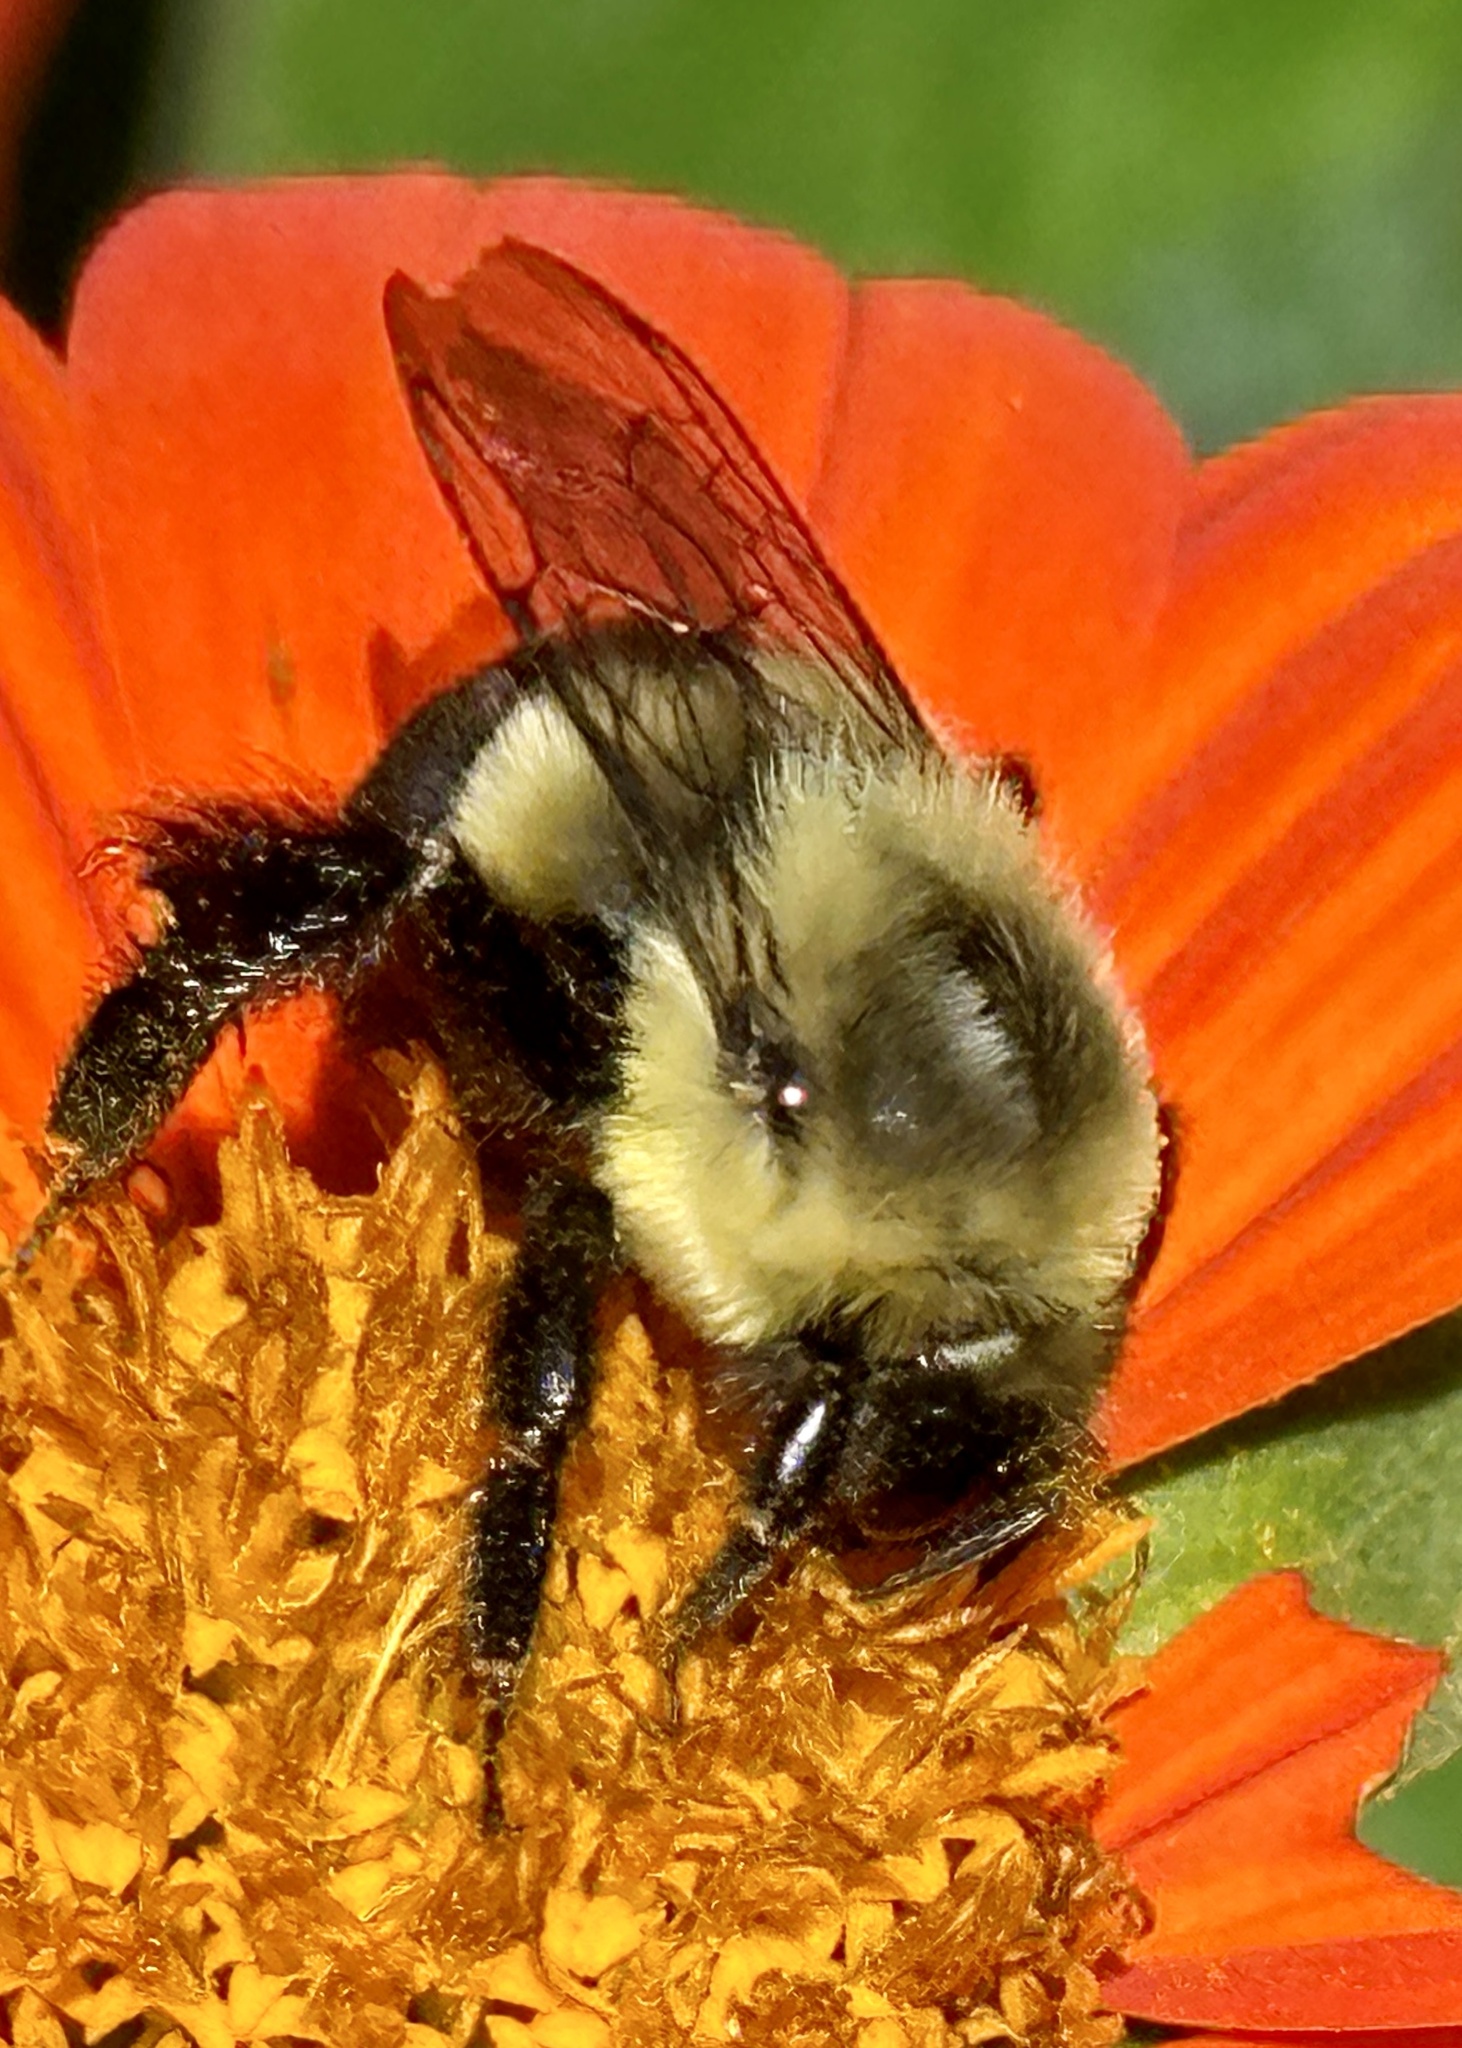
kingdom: Animalia
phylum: Arthropoda
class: Insecta
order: Hymenoptera
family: Apidae
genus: Bombus
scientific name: Bombus impatiens
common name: Common eastern bumble bee
